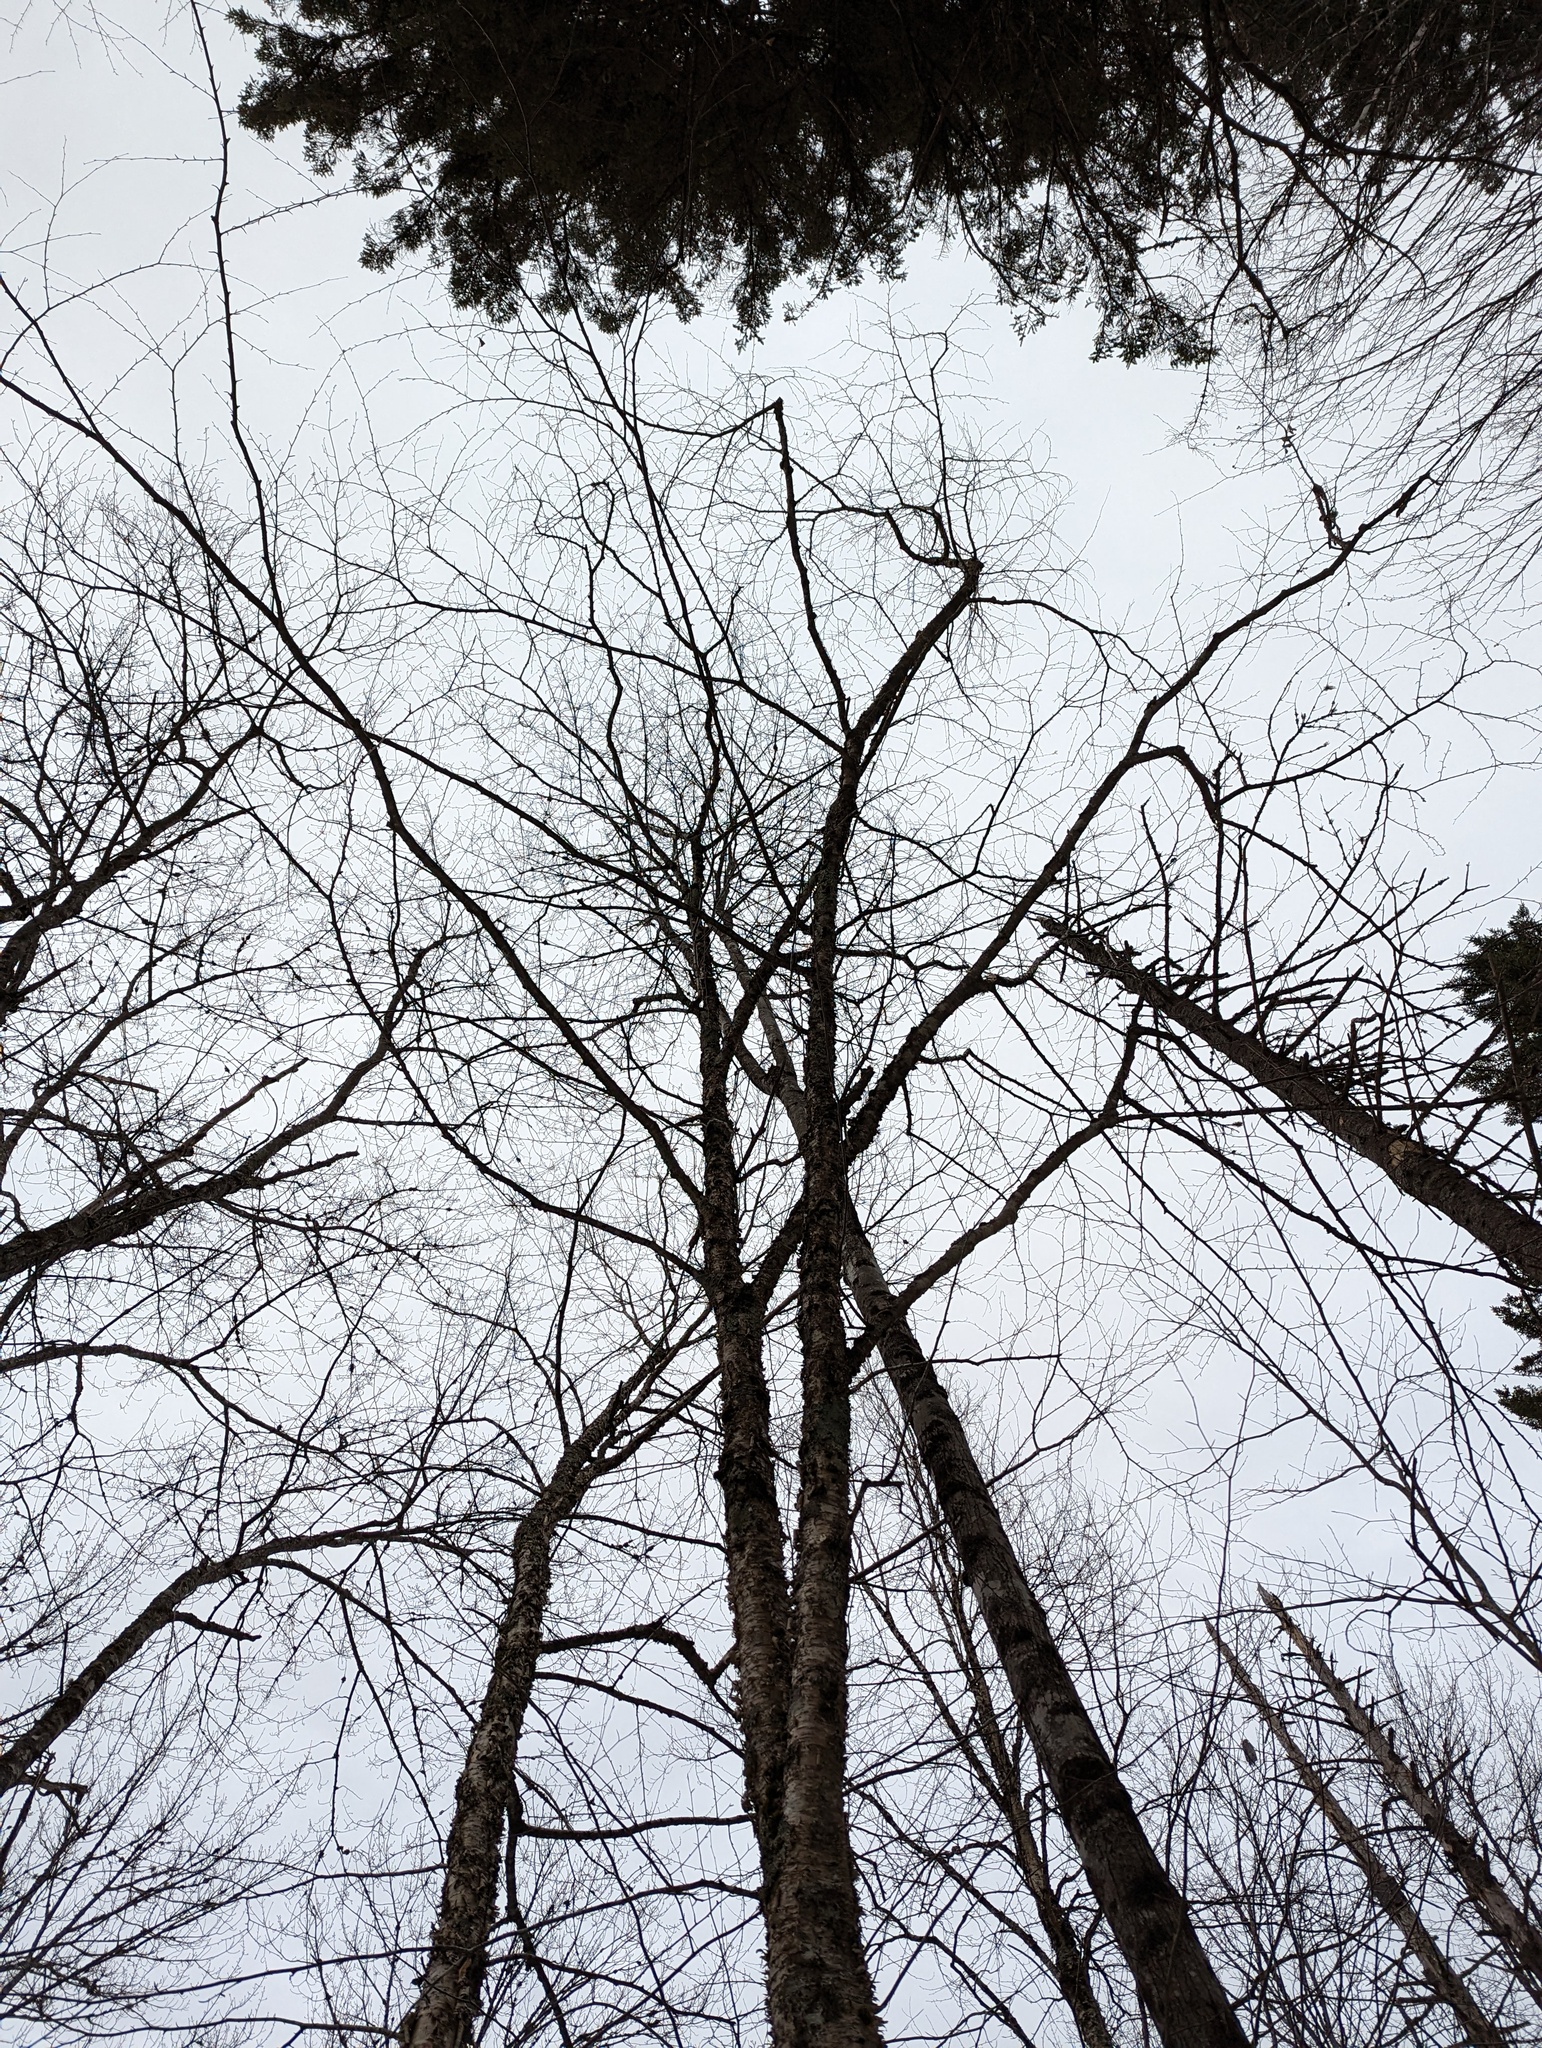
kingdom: Plantae
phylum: Tracheophyta
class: Magnoliopsida
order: Fagales
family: Betulaceae
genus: Betula
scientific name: Betula alleghaniensis
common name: Yellow birch
